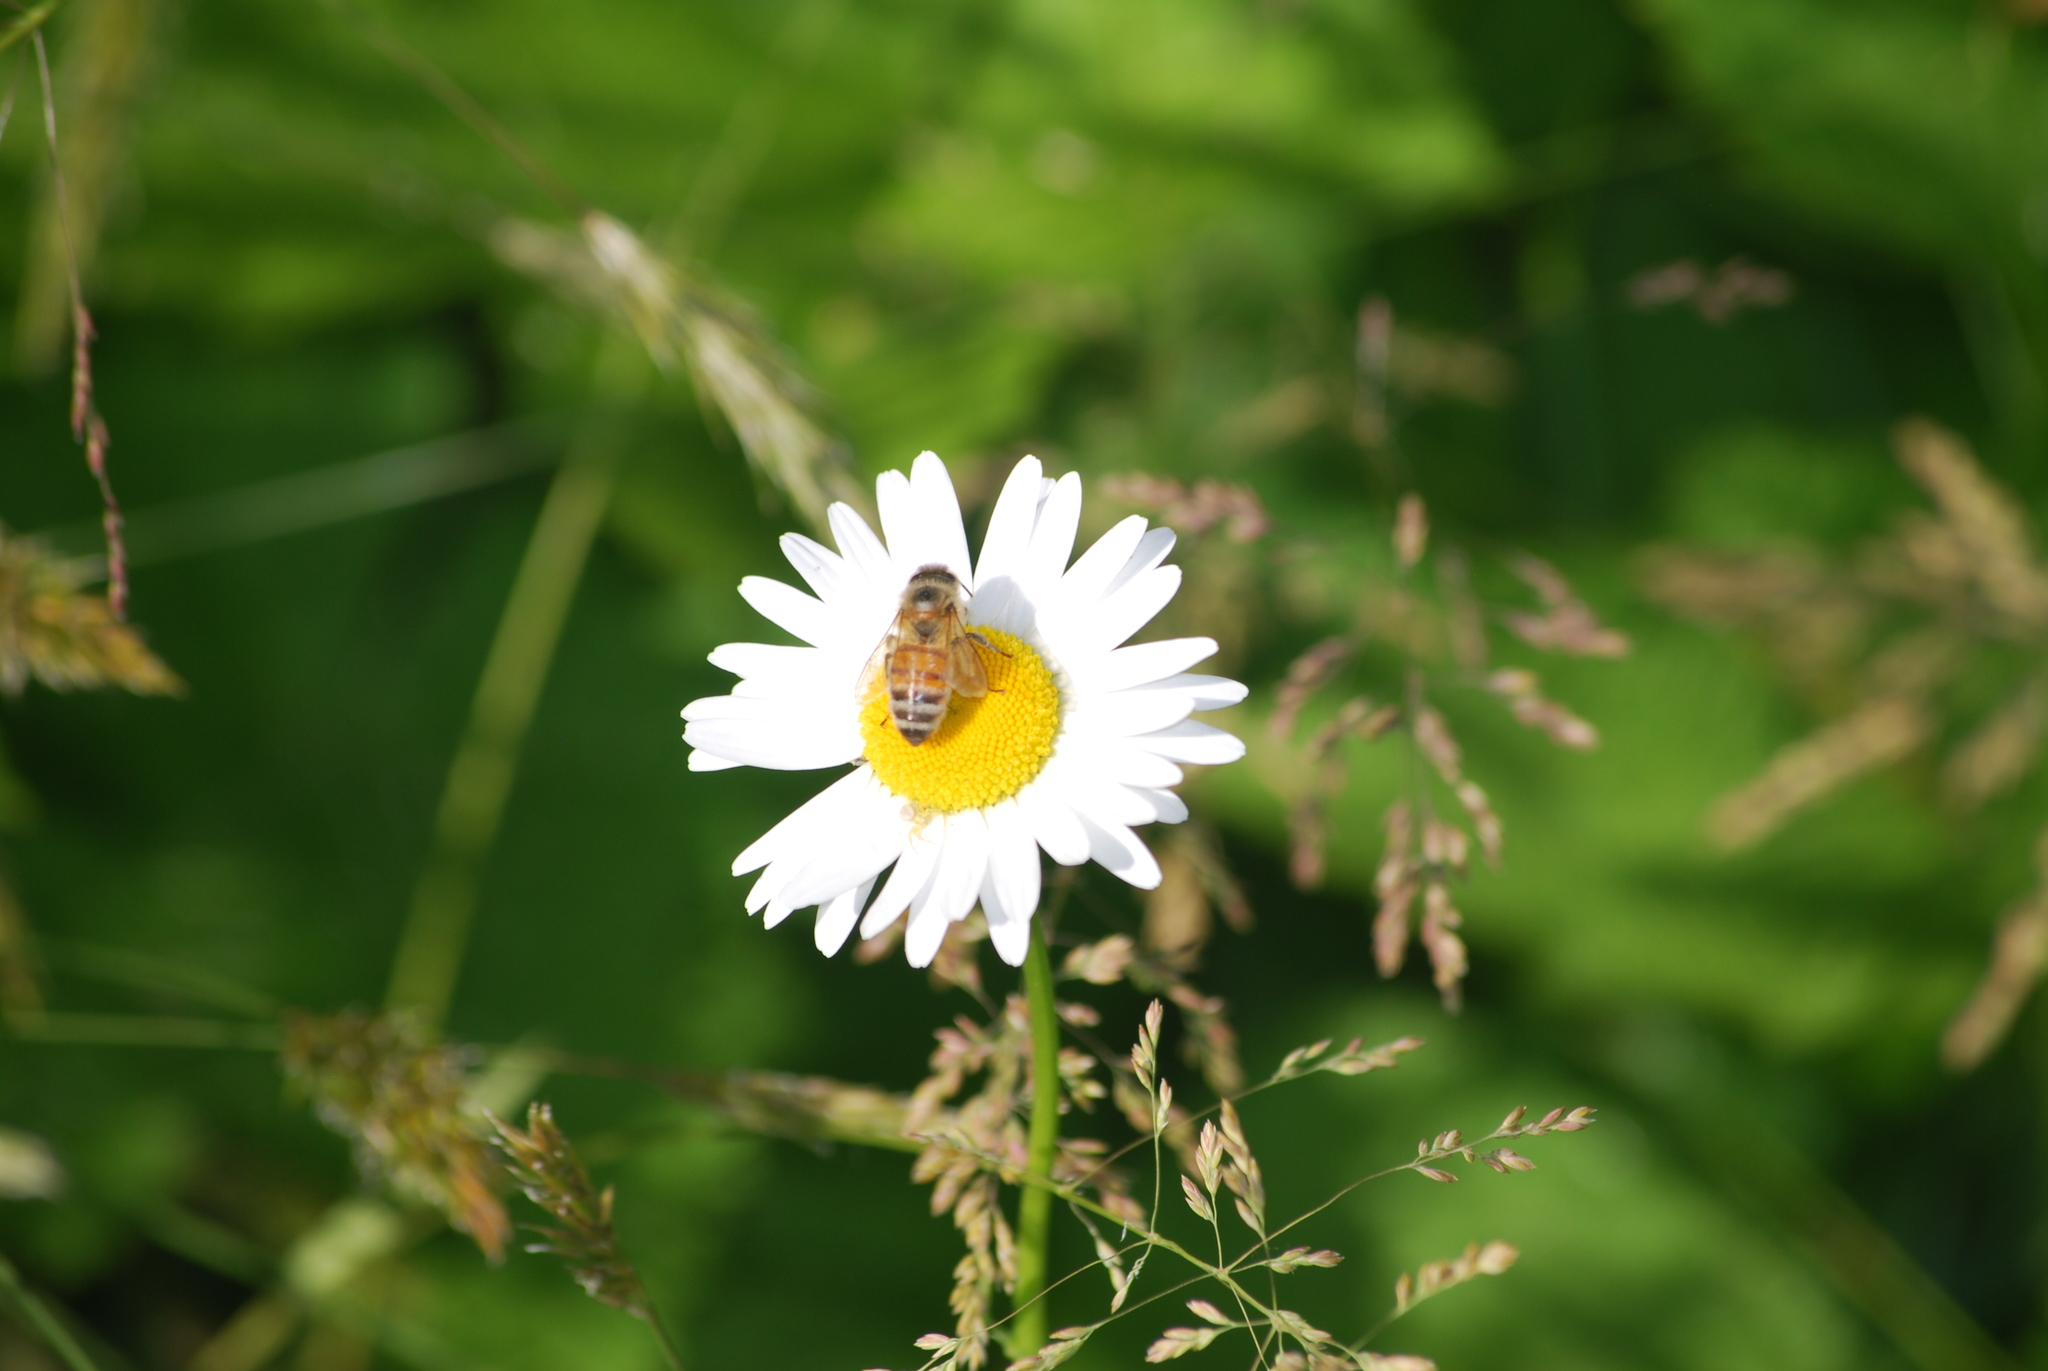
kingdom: Animalia
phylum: Arthropoda
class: Insecta
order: Hymenoptera
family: Apidae
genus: Apis
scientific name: Apis mellifera
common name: Honey bee
